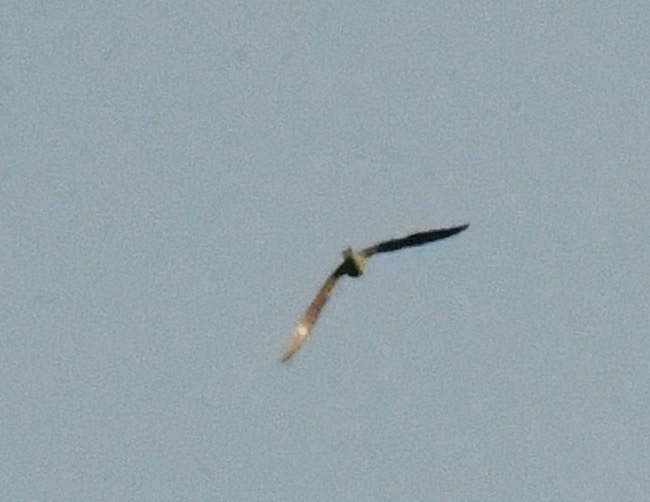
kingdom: Animalia
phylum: Chordata
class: Aves
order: Caprimulgiformes
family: Caprimulgidae
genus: Chordeiles
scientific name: Chordeiles minor
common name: Common nighthawk
